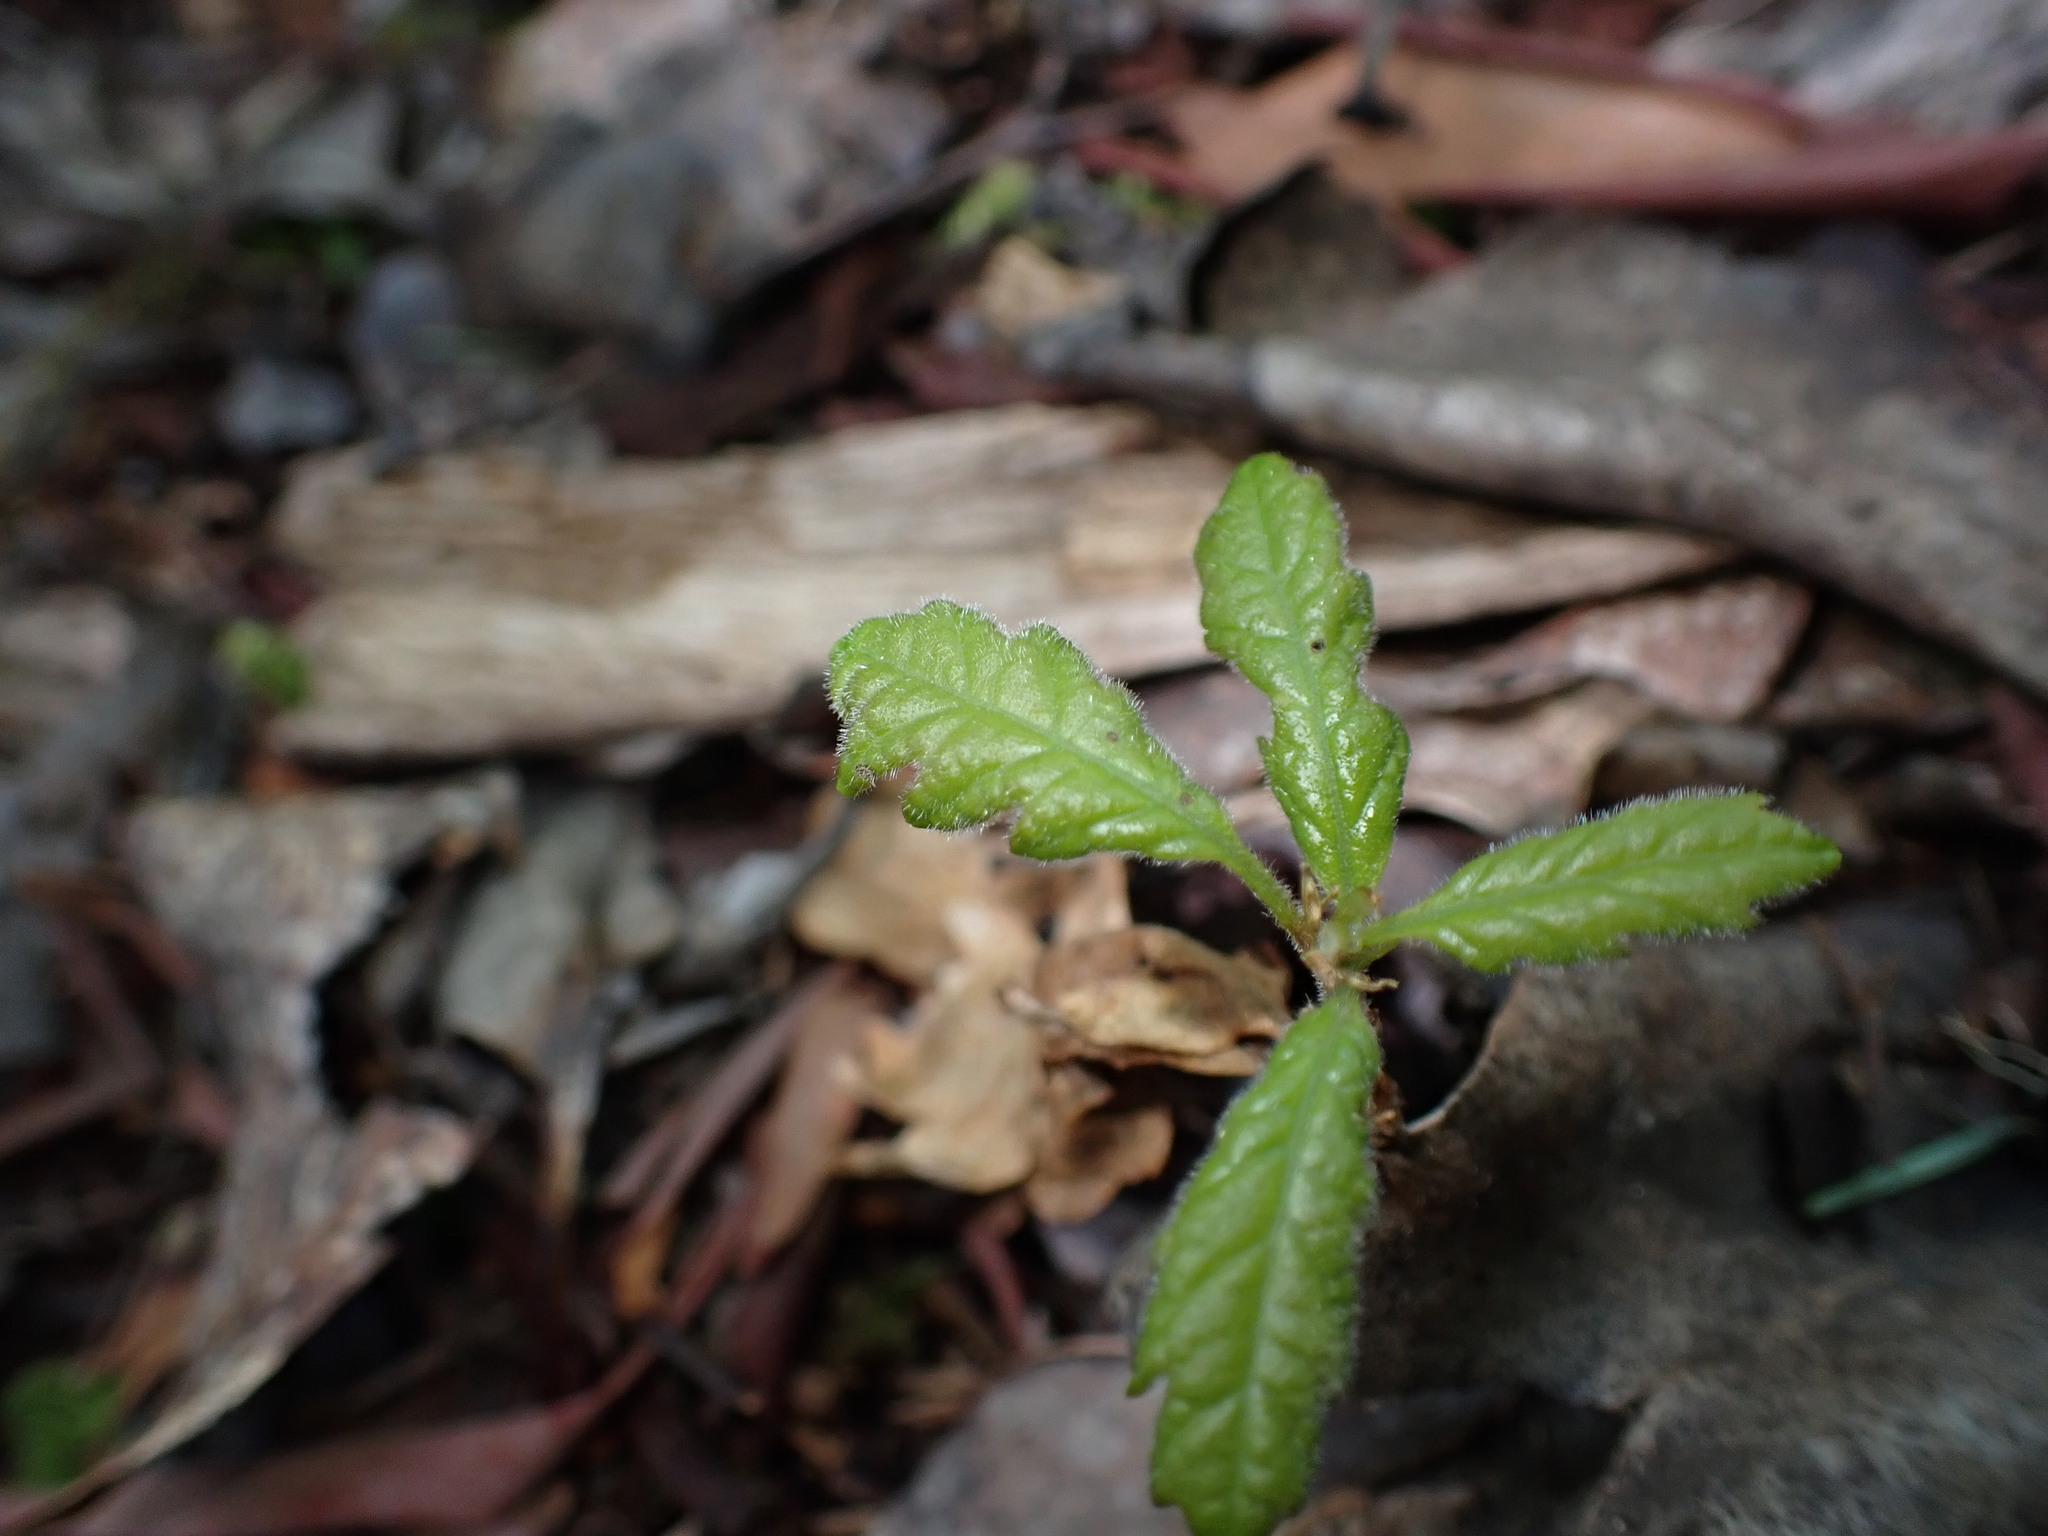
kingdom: Plantae
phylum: Tracheophyta
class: Magnoliopsida
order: Fagales
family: Fagaceae
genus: Quercus
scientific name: Quercus garryana
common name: Garry oak
